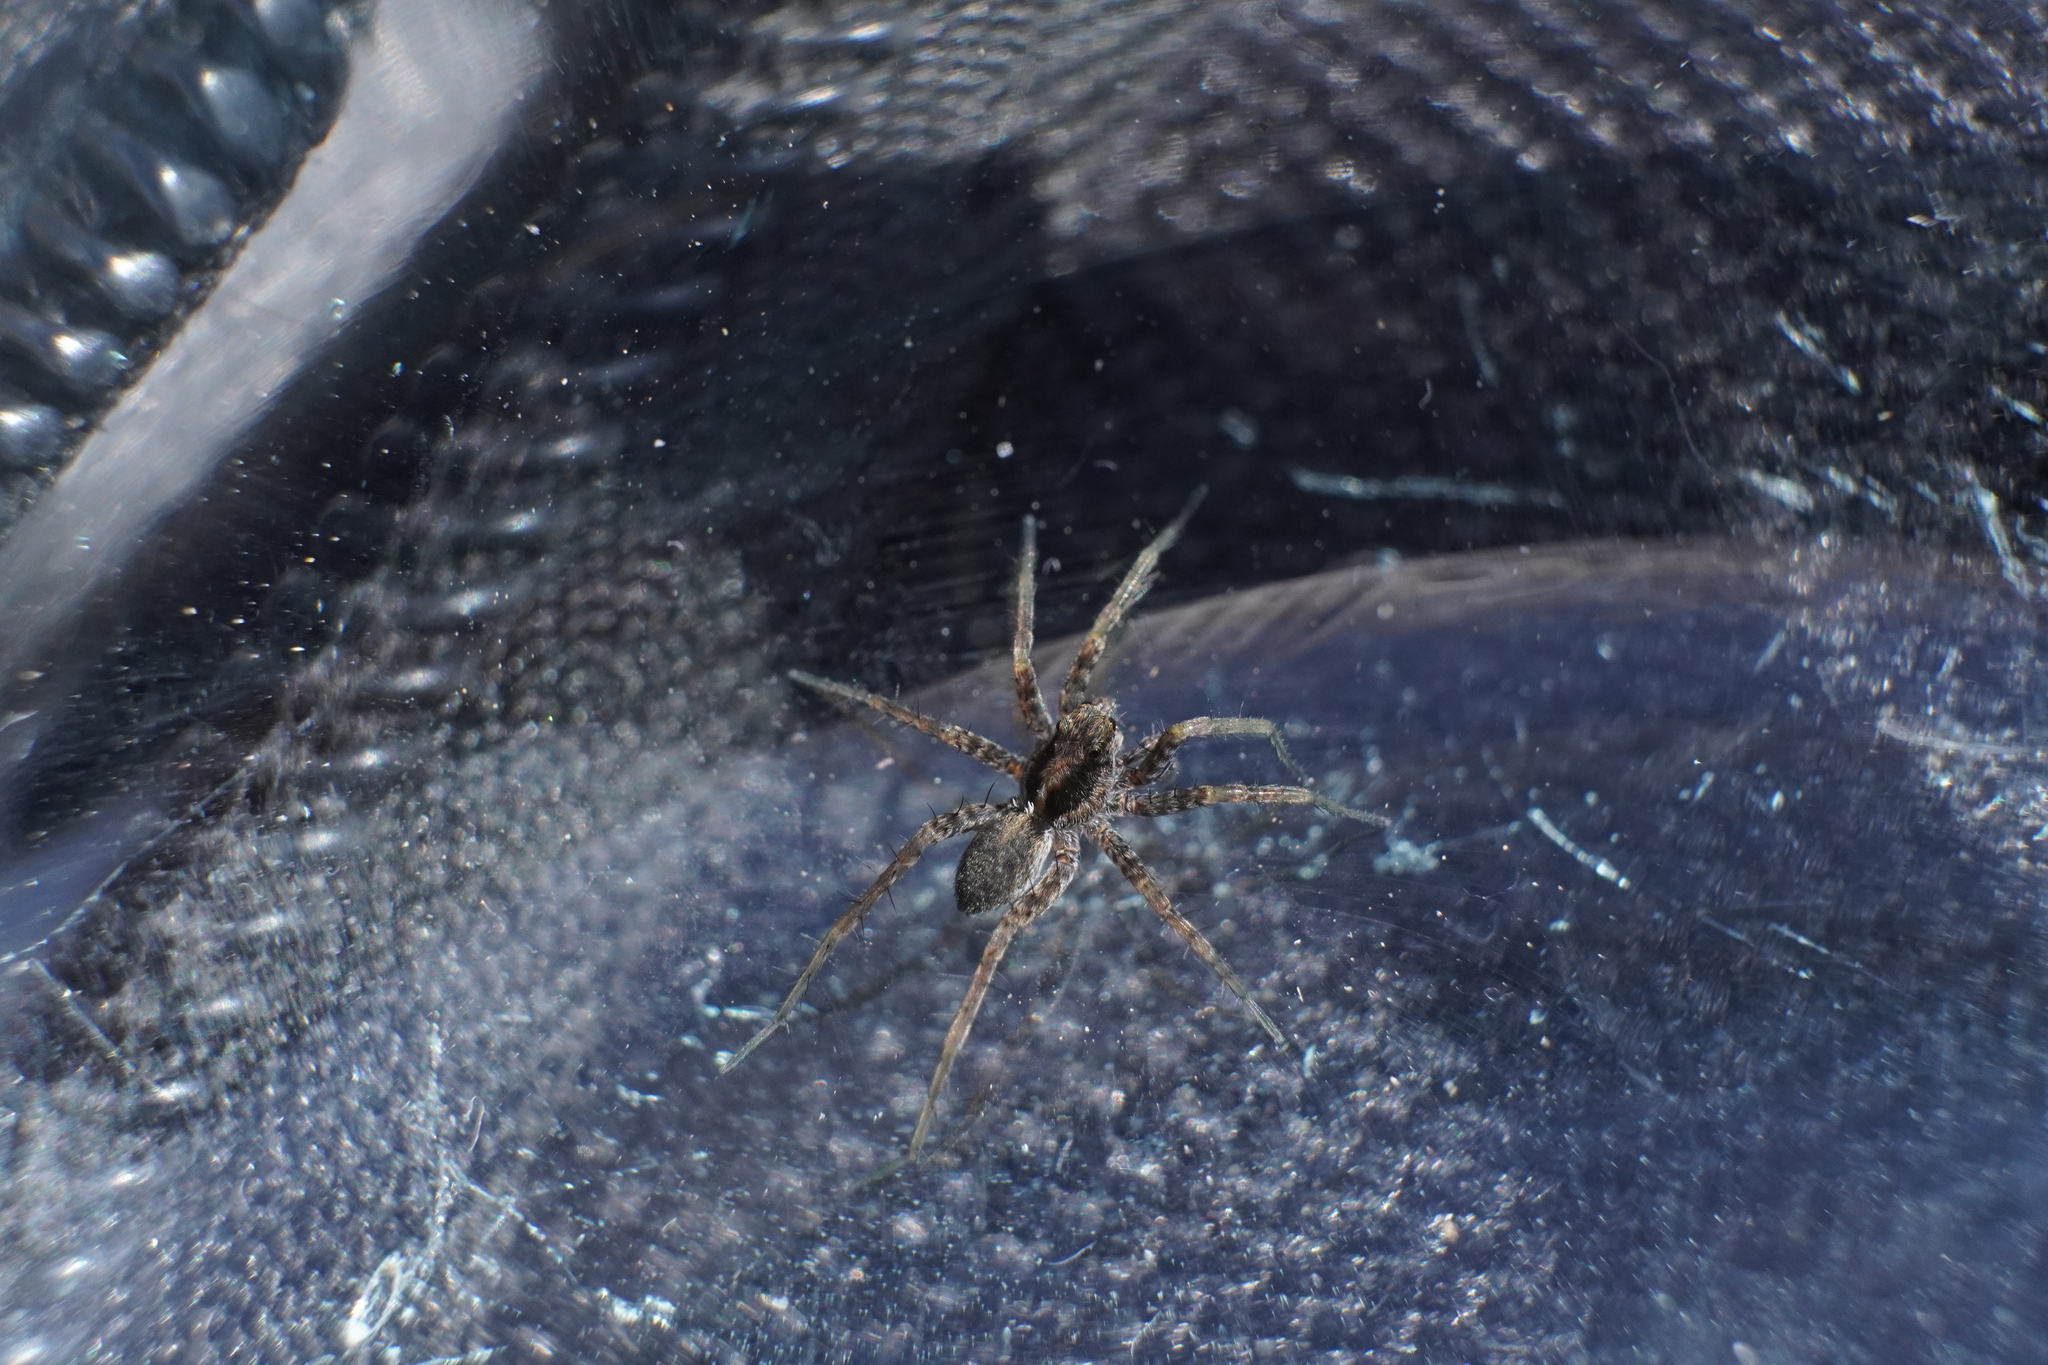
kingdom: Animalia
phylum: Arthropoda
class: Arachnida
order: Araneae
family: Lycosidae
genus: Pardosa
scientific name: Pardosa milvina
